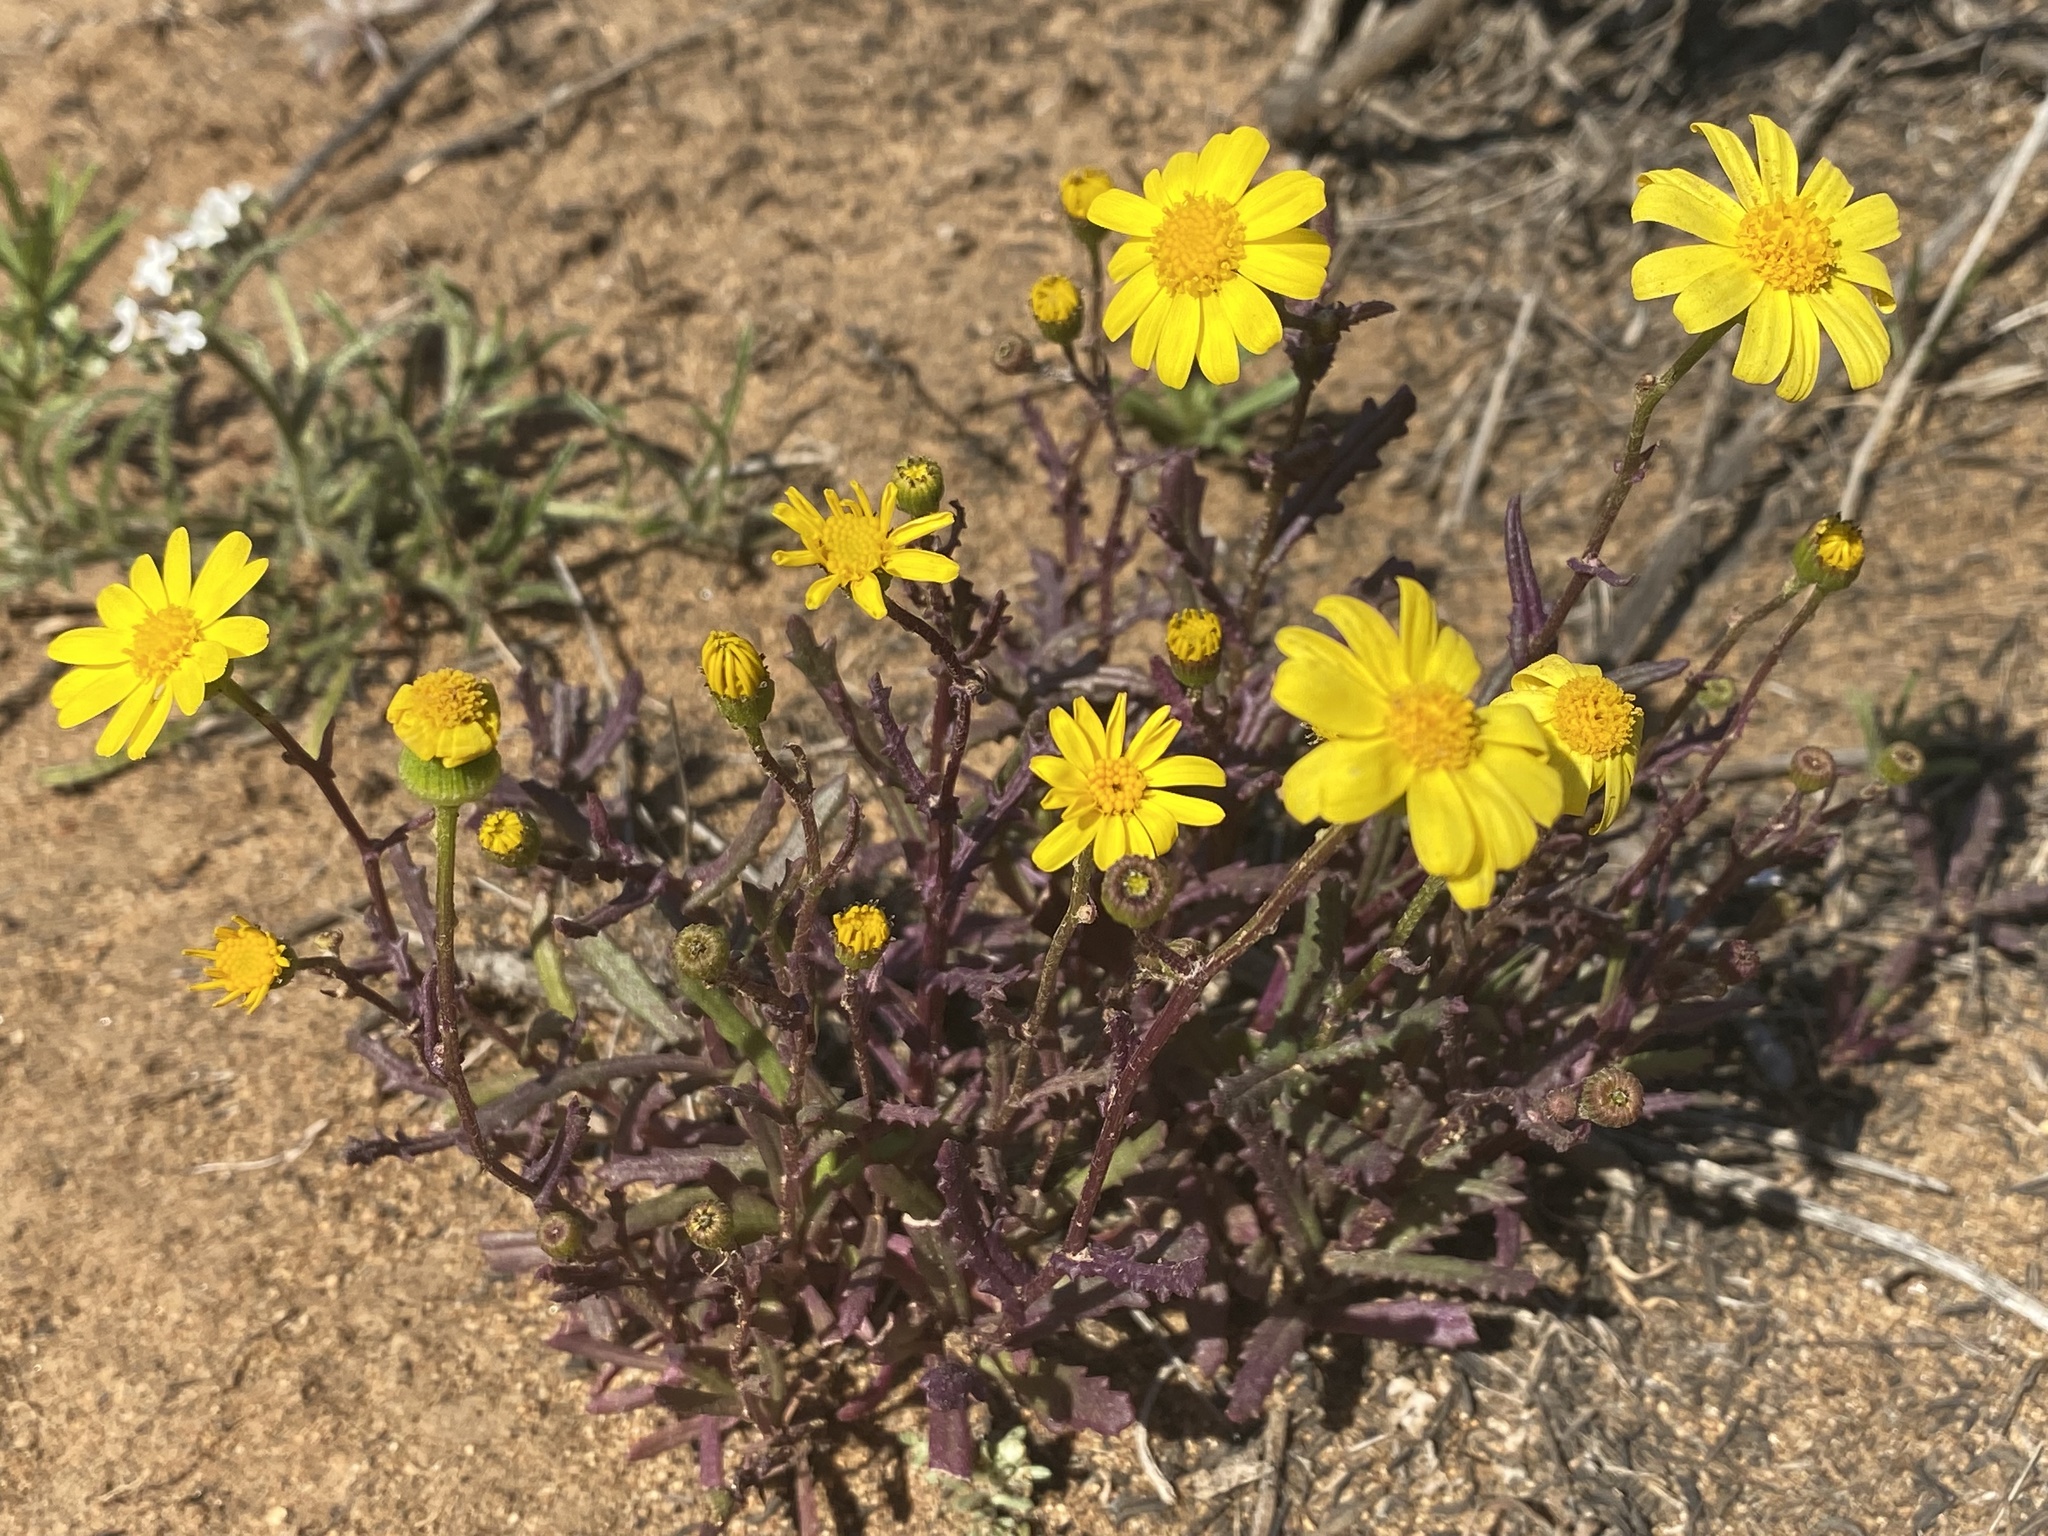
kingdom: Plantae
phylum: Tracheophyta
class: Magnoliopsida
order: Asterales
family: Asteraceae
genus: Senecio
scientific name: Senecio californicus
